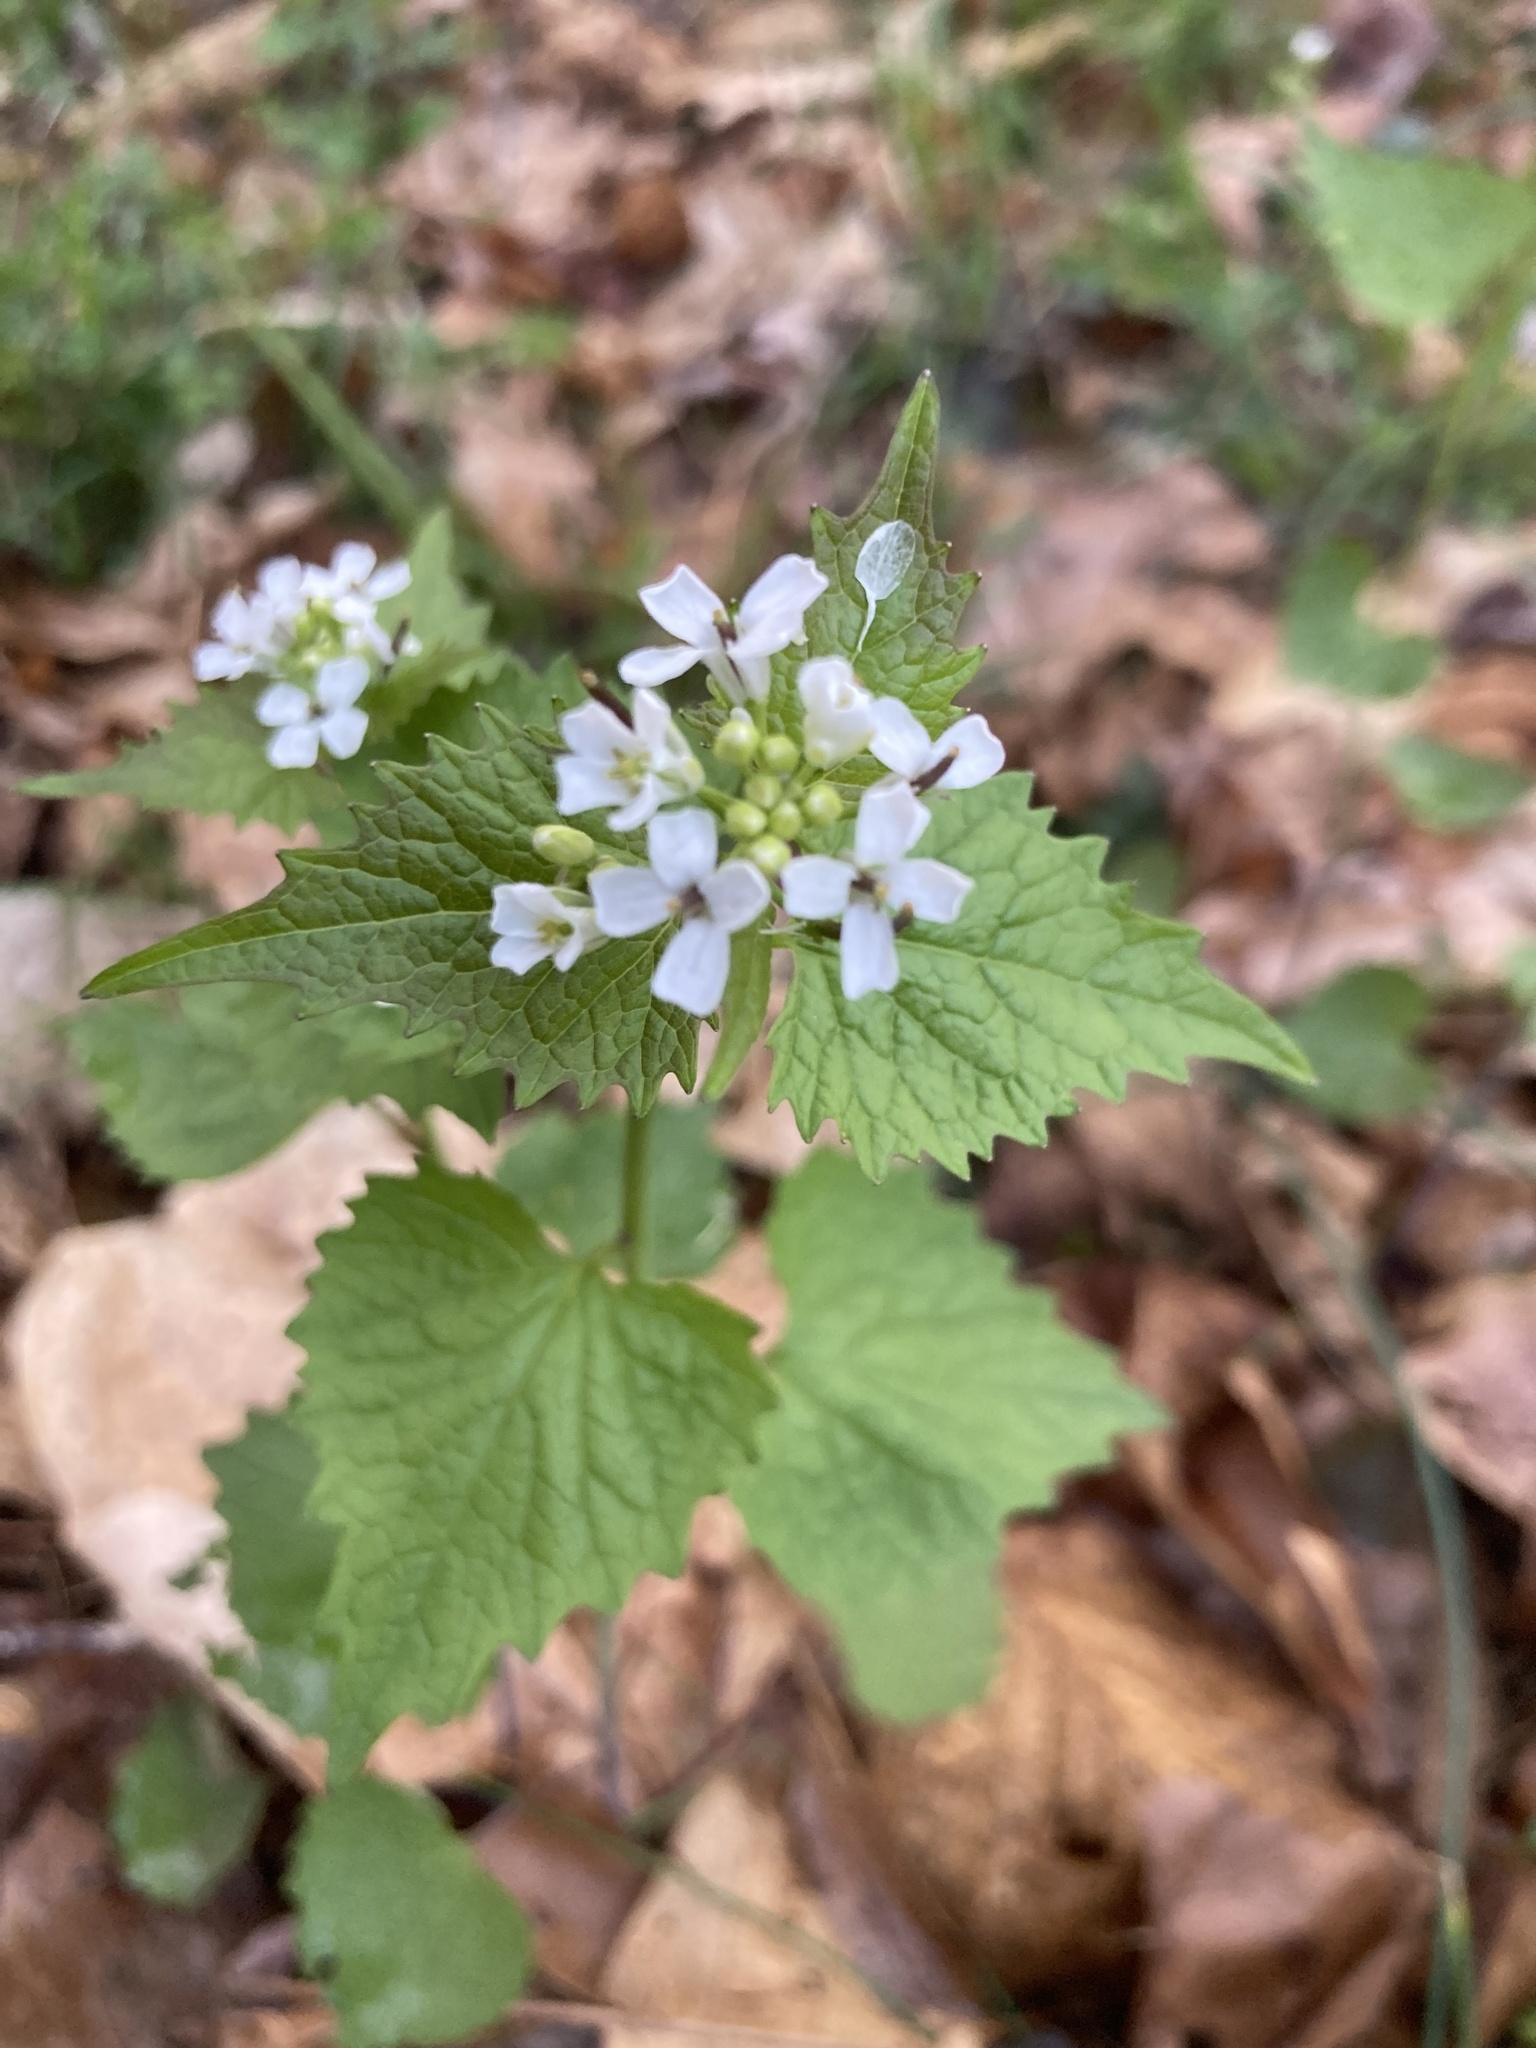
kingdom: Plantae
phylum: Tracheophyta
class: Magnoliopsida
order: Brassicales
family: Brassicaceae
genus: Alliaria
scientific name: Alliaria petiolata
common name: Garlic mustard
